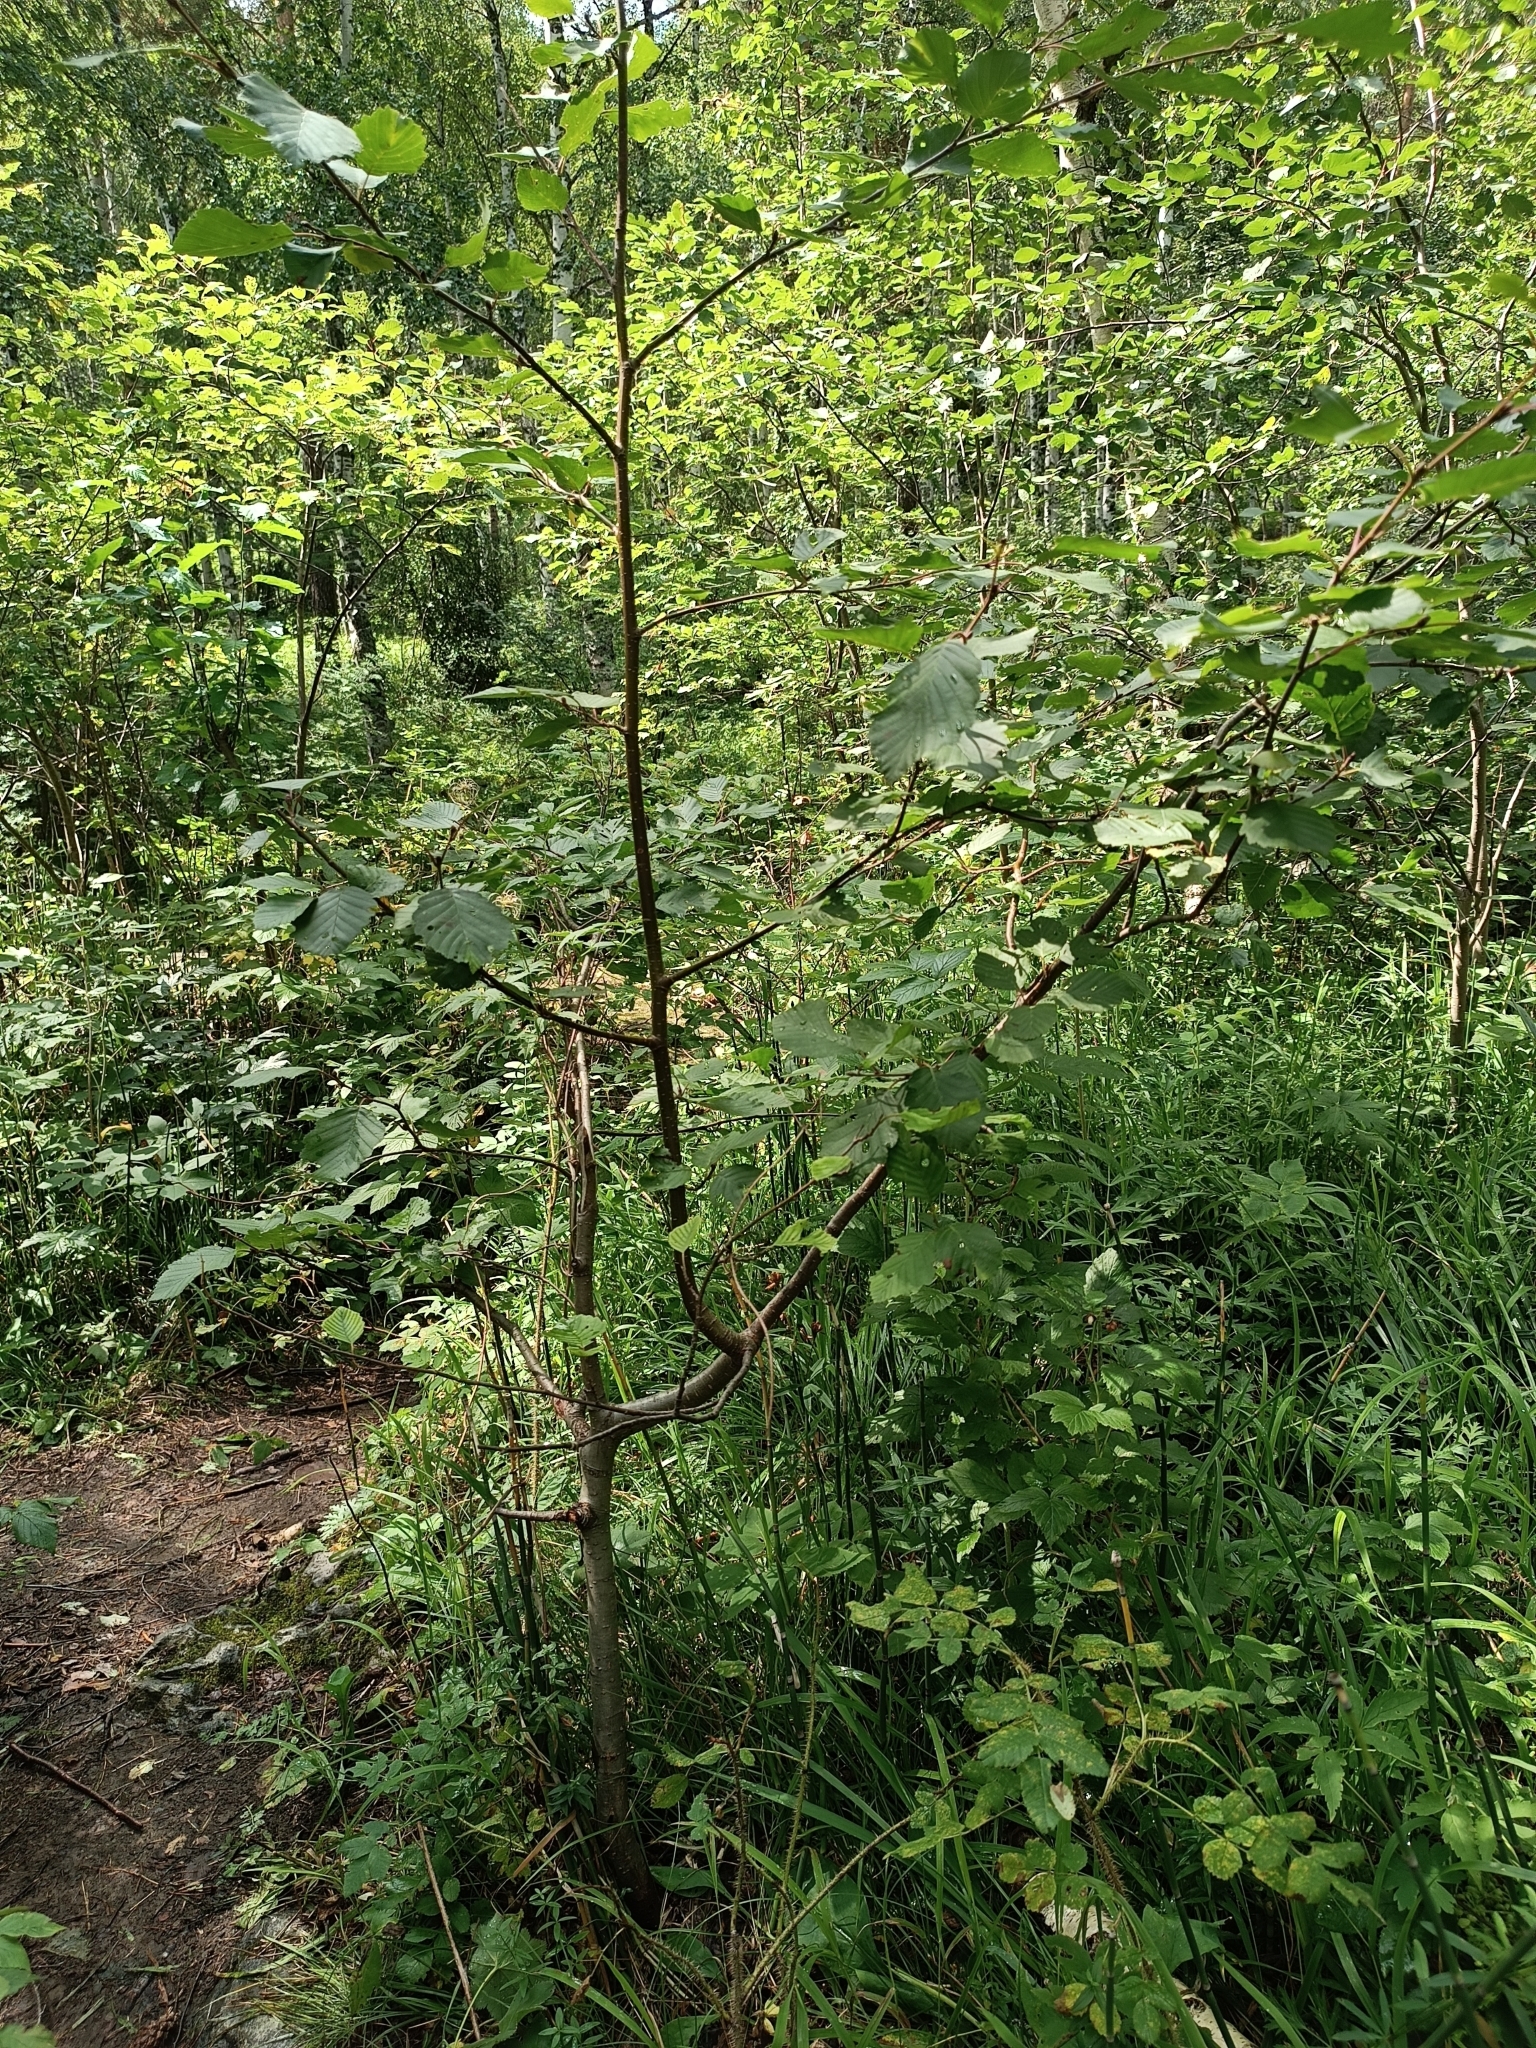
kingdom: Plantae
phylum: Tracheophyta
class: Magnoliopsida
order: Fagales
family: Betulaceae
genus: Alnus
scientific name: Alnus incana
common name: Grey alder
